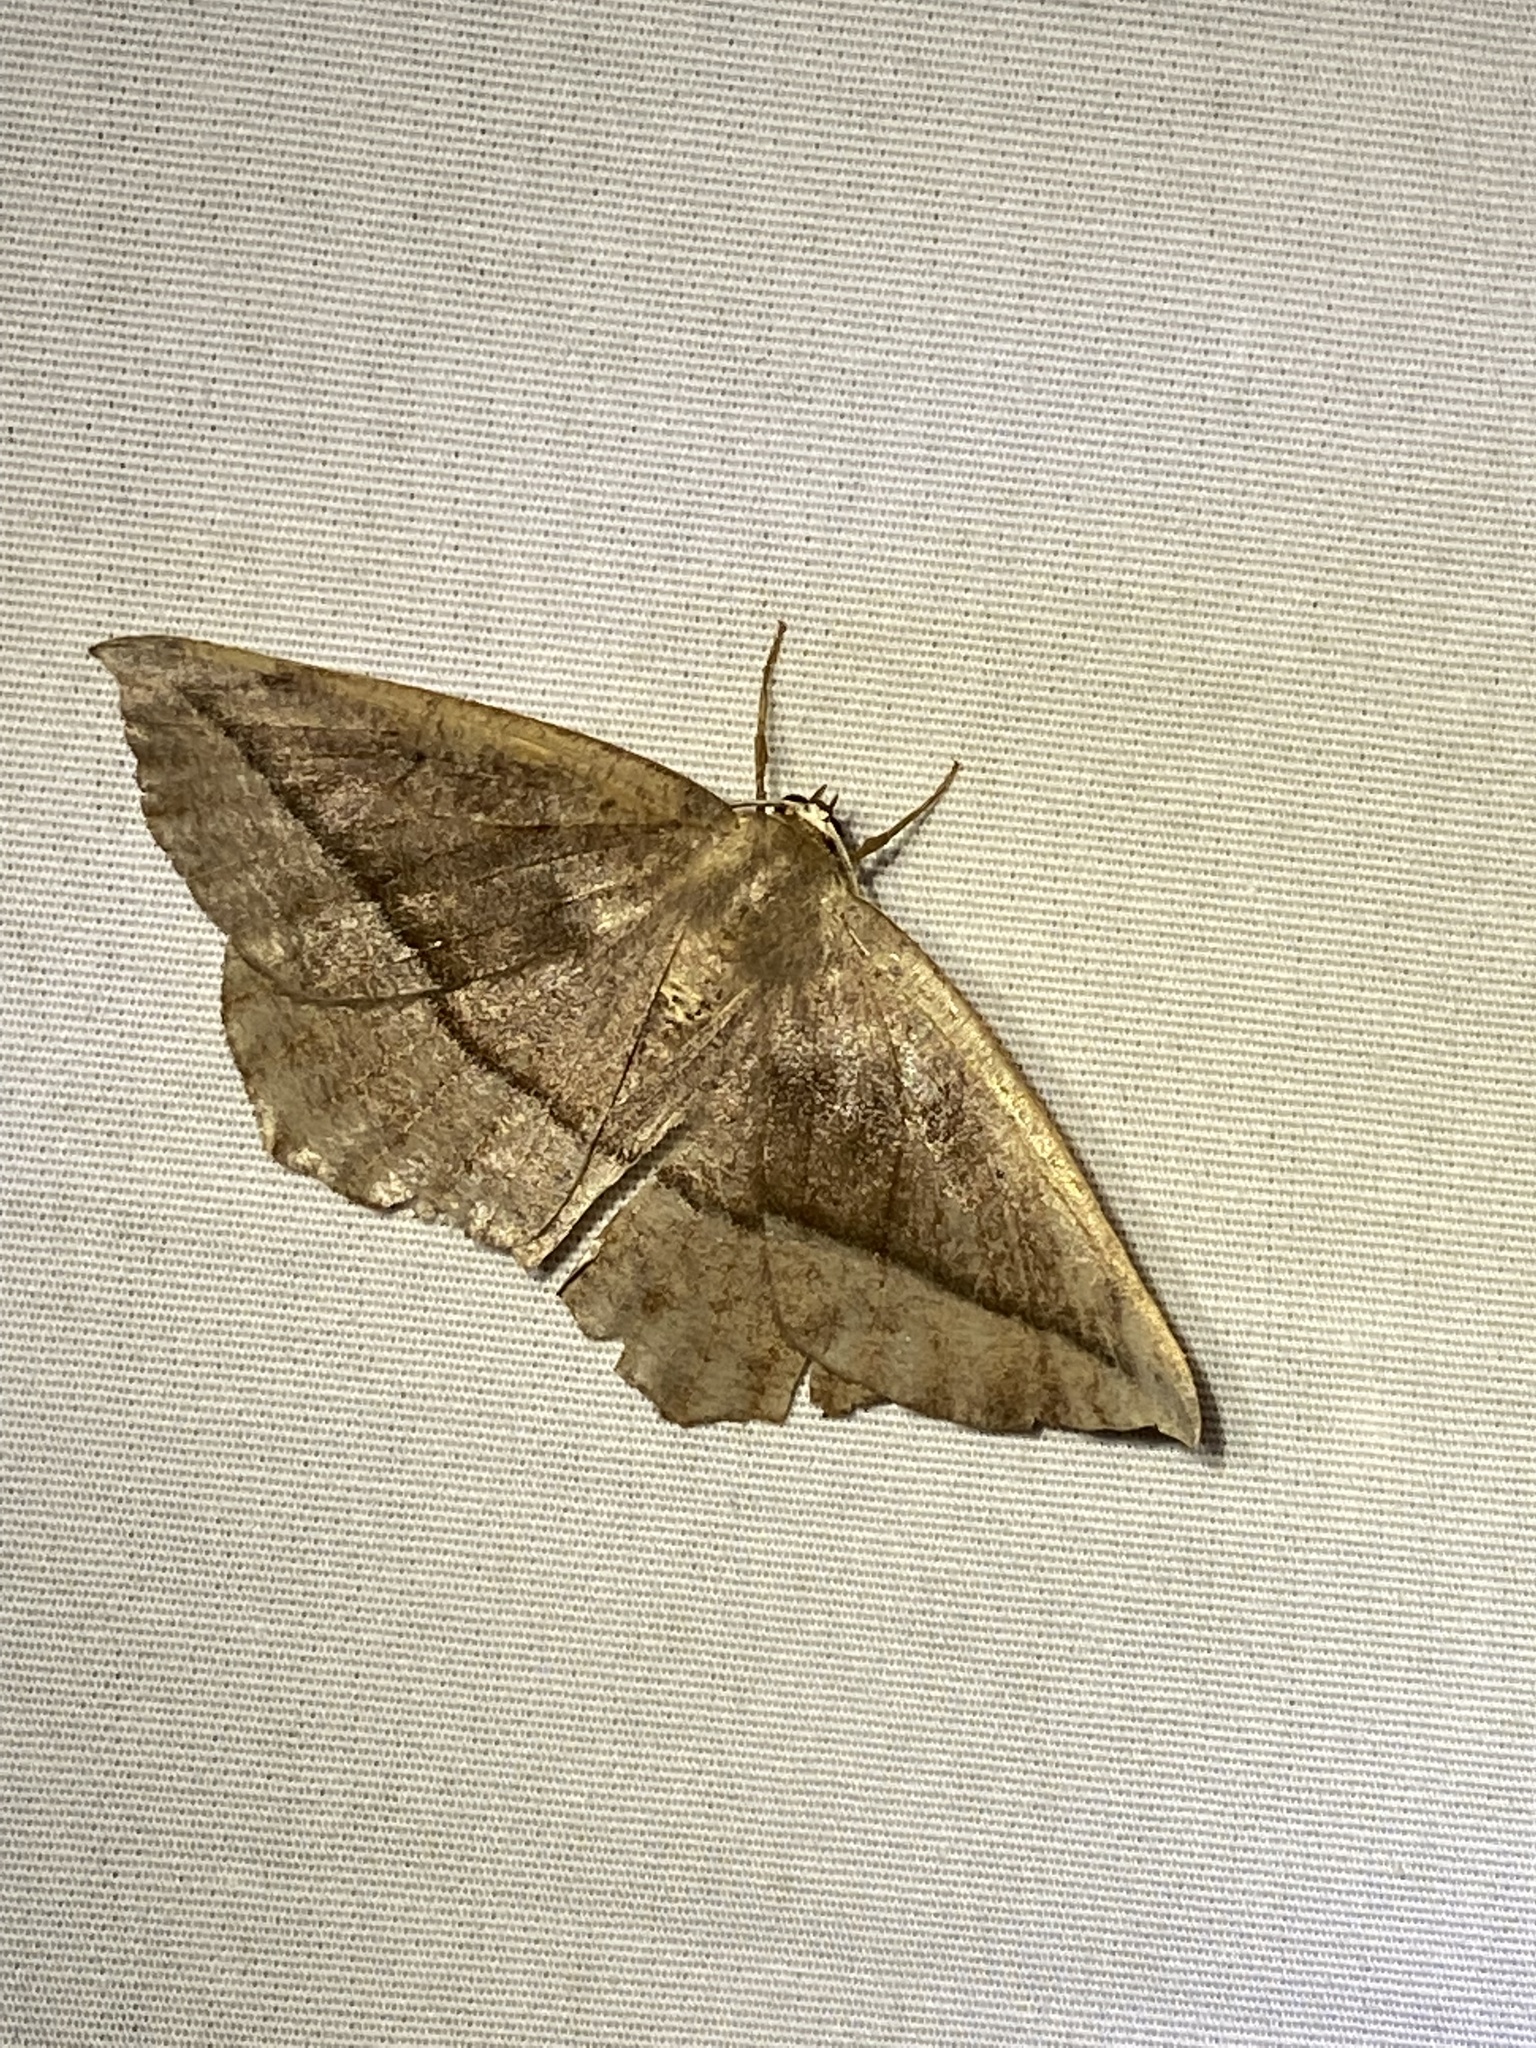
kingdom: Animalia
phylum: Arthropoda
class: Insecta
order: Lepidoptera
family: Geometridae
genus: Eutrapela
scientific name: Eutrapela clemataria
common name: Curved-toothed geometer
